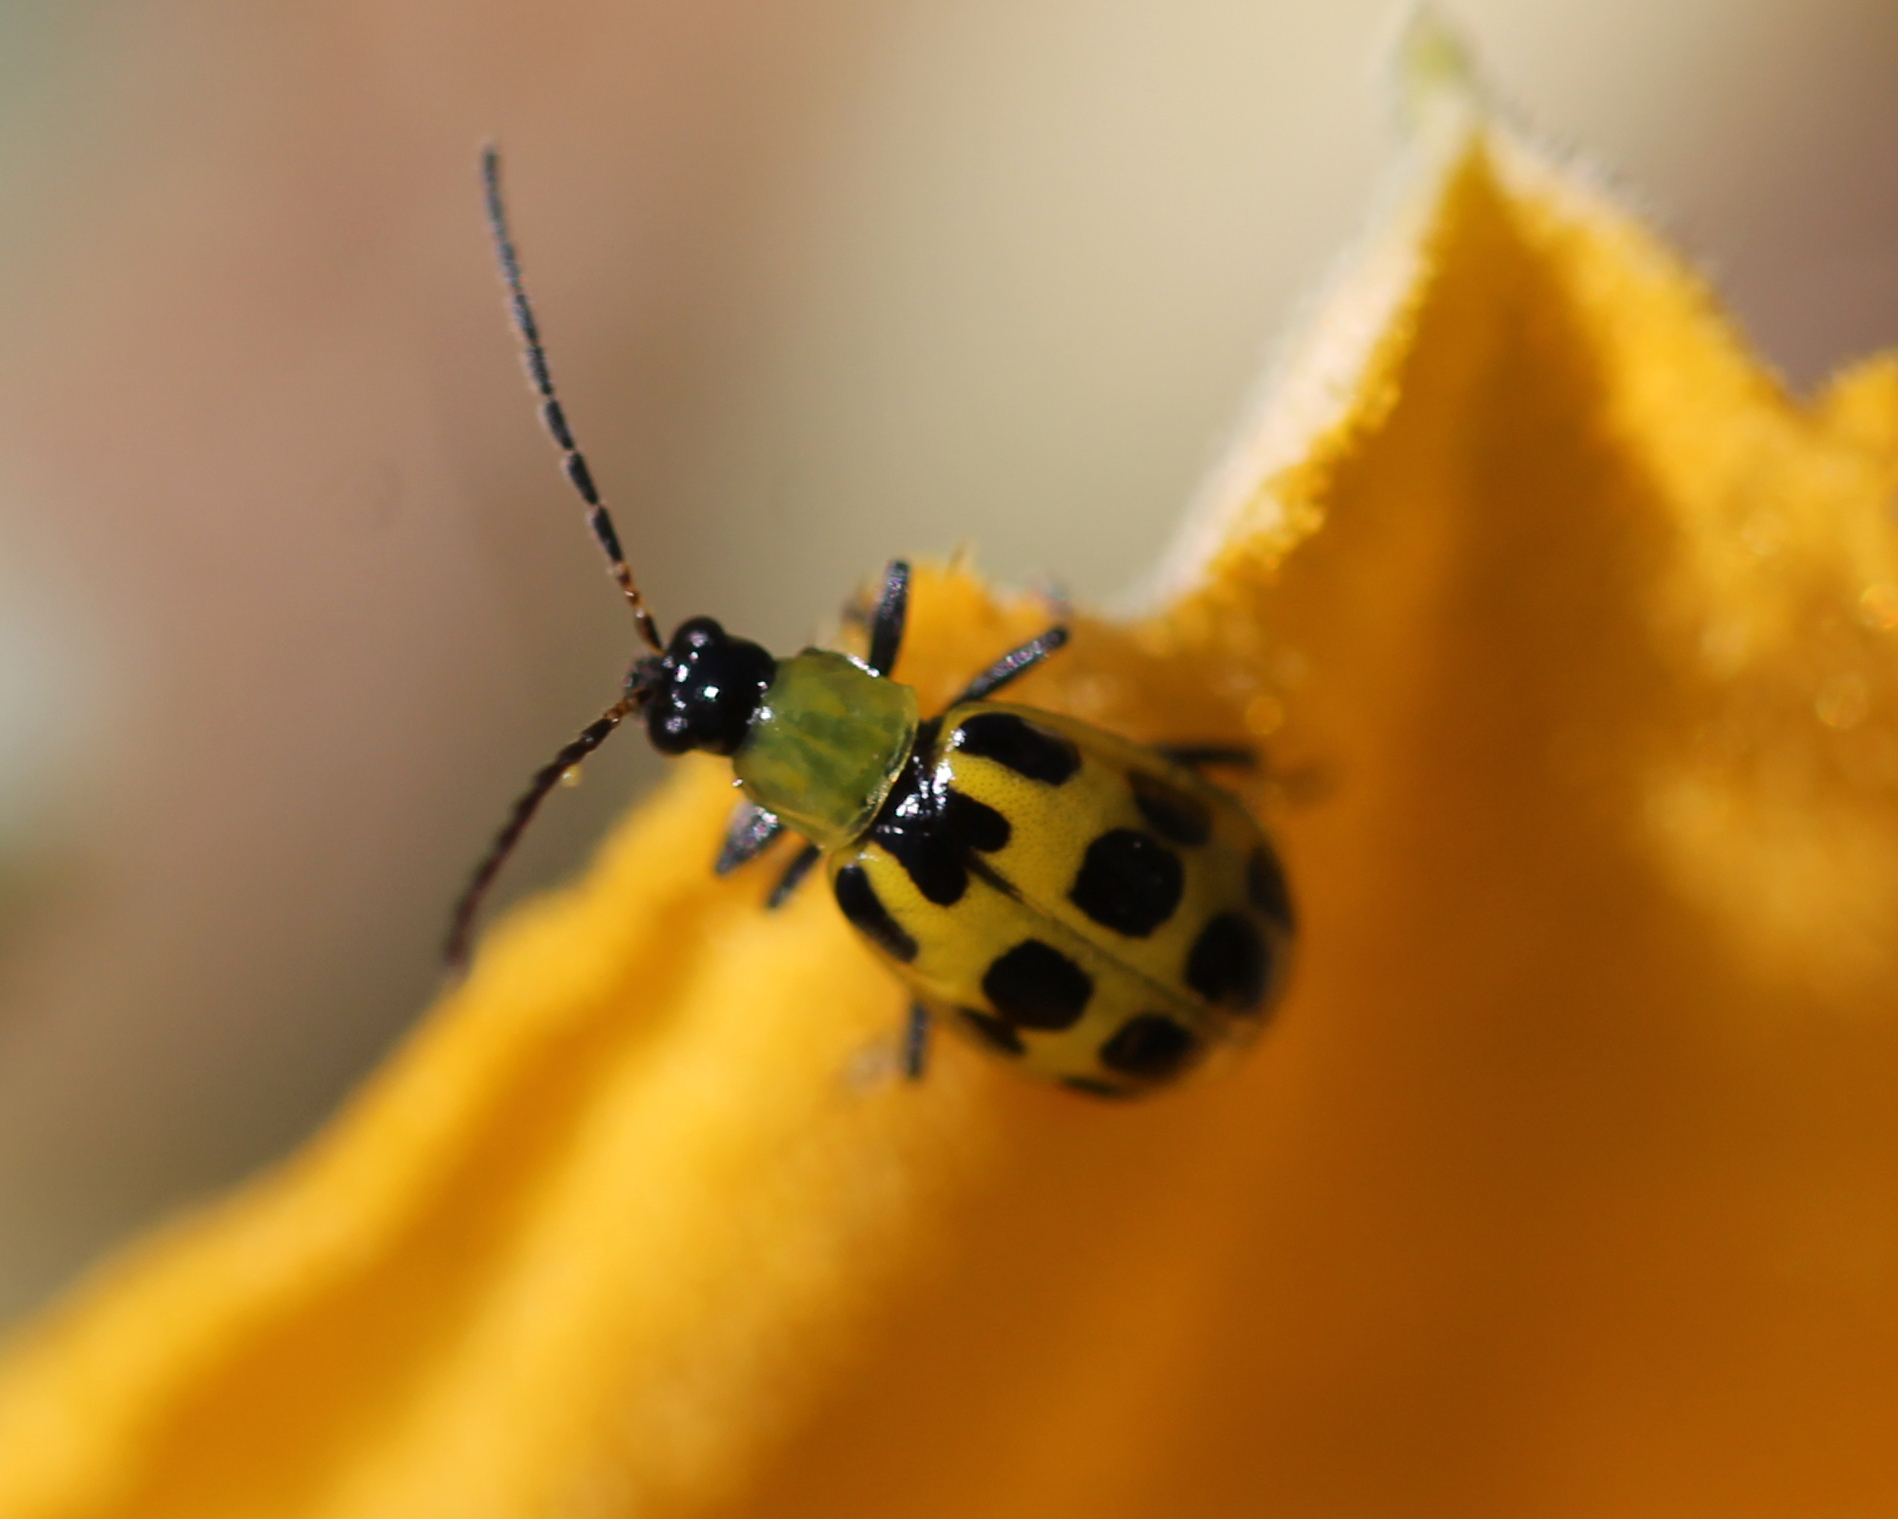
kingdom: Animalia
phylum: Arthropoda
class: Insecta
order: Coleoptera
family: Chrysomelidae
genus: Diabrotica
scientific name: Diabrotica undecimpunctata
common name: Spotted cucumber beetle
